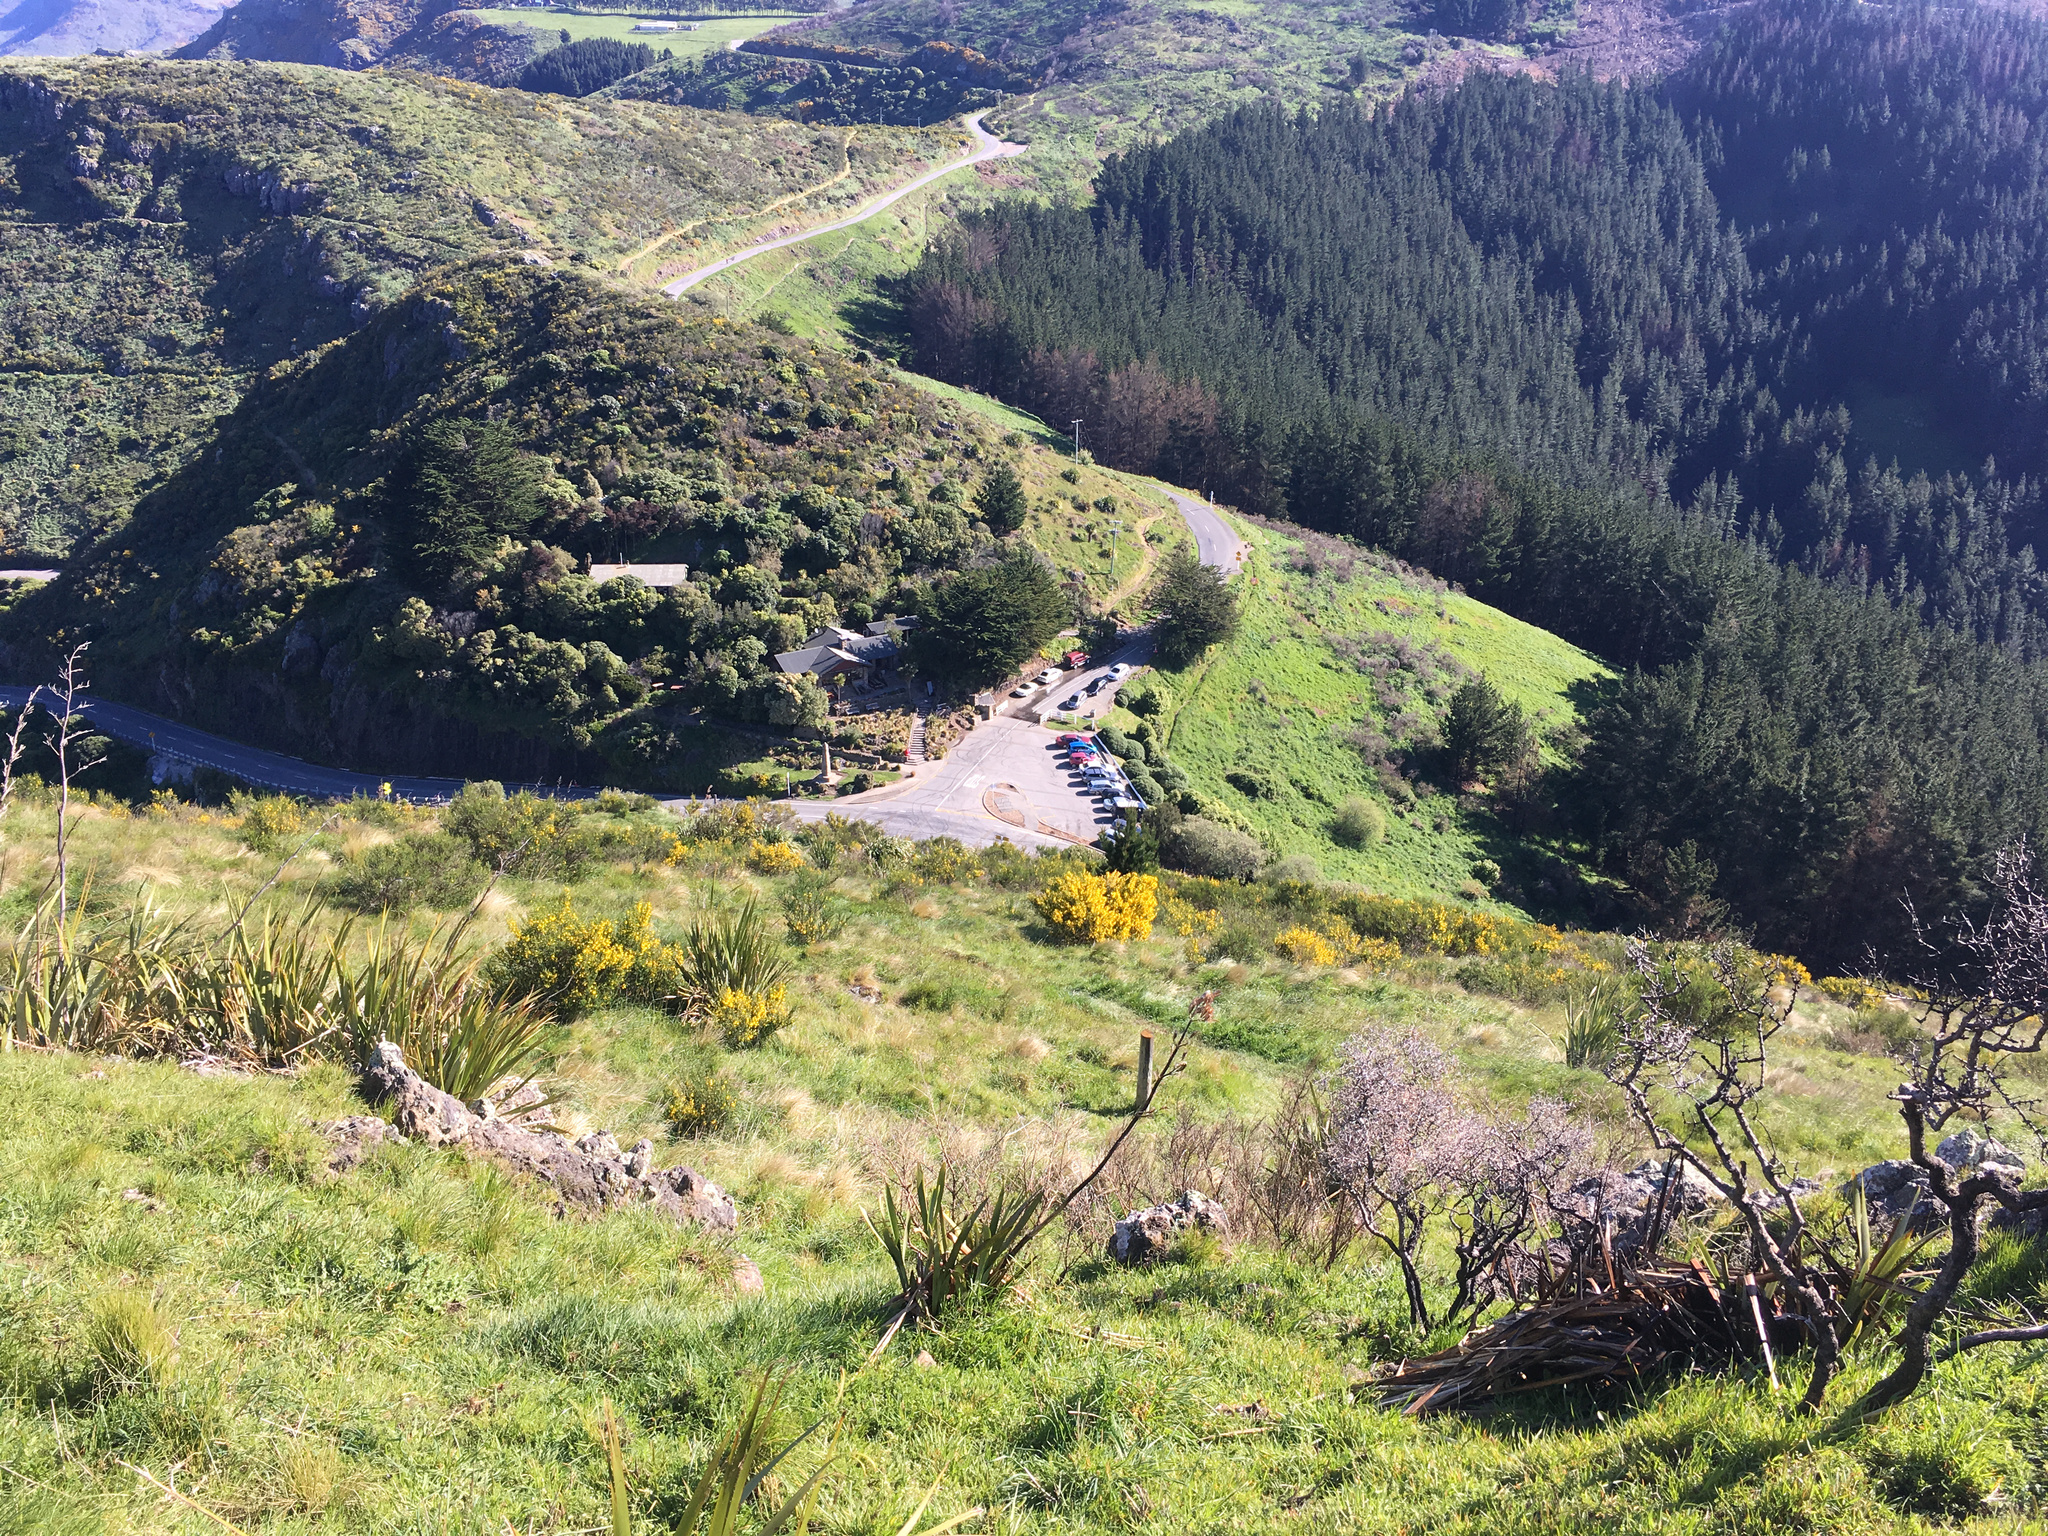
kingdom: Plantae
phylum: Tracheophyta
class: Liliopsida
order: Asparagales
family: Asphodelaceae
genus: Phormium
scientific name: Phormium tenax
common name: New zealand flax
